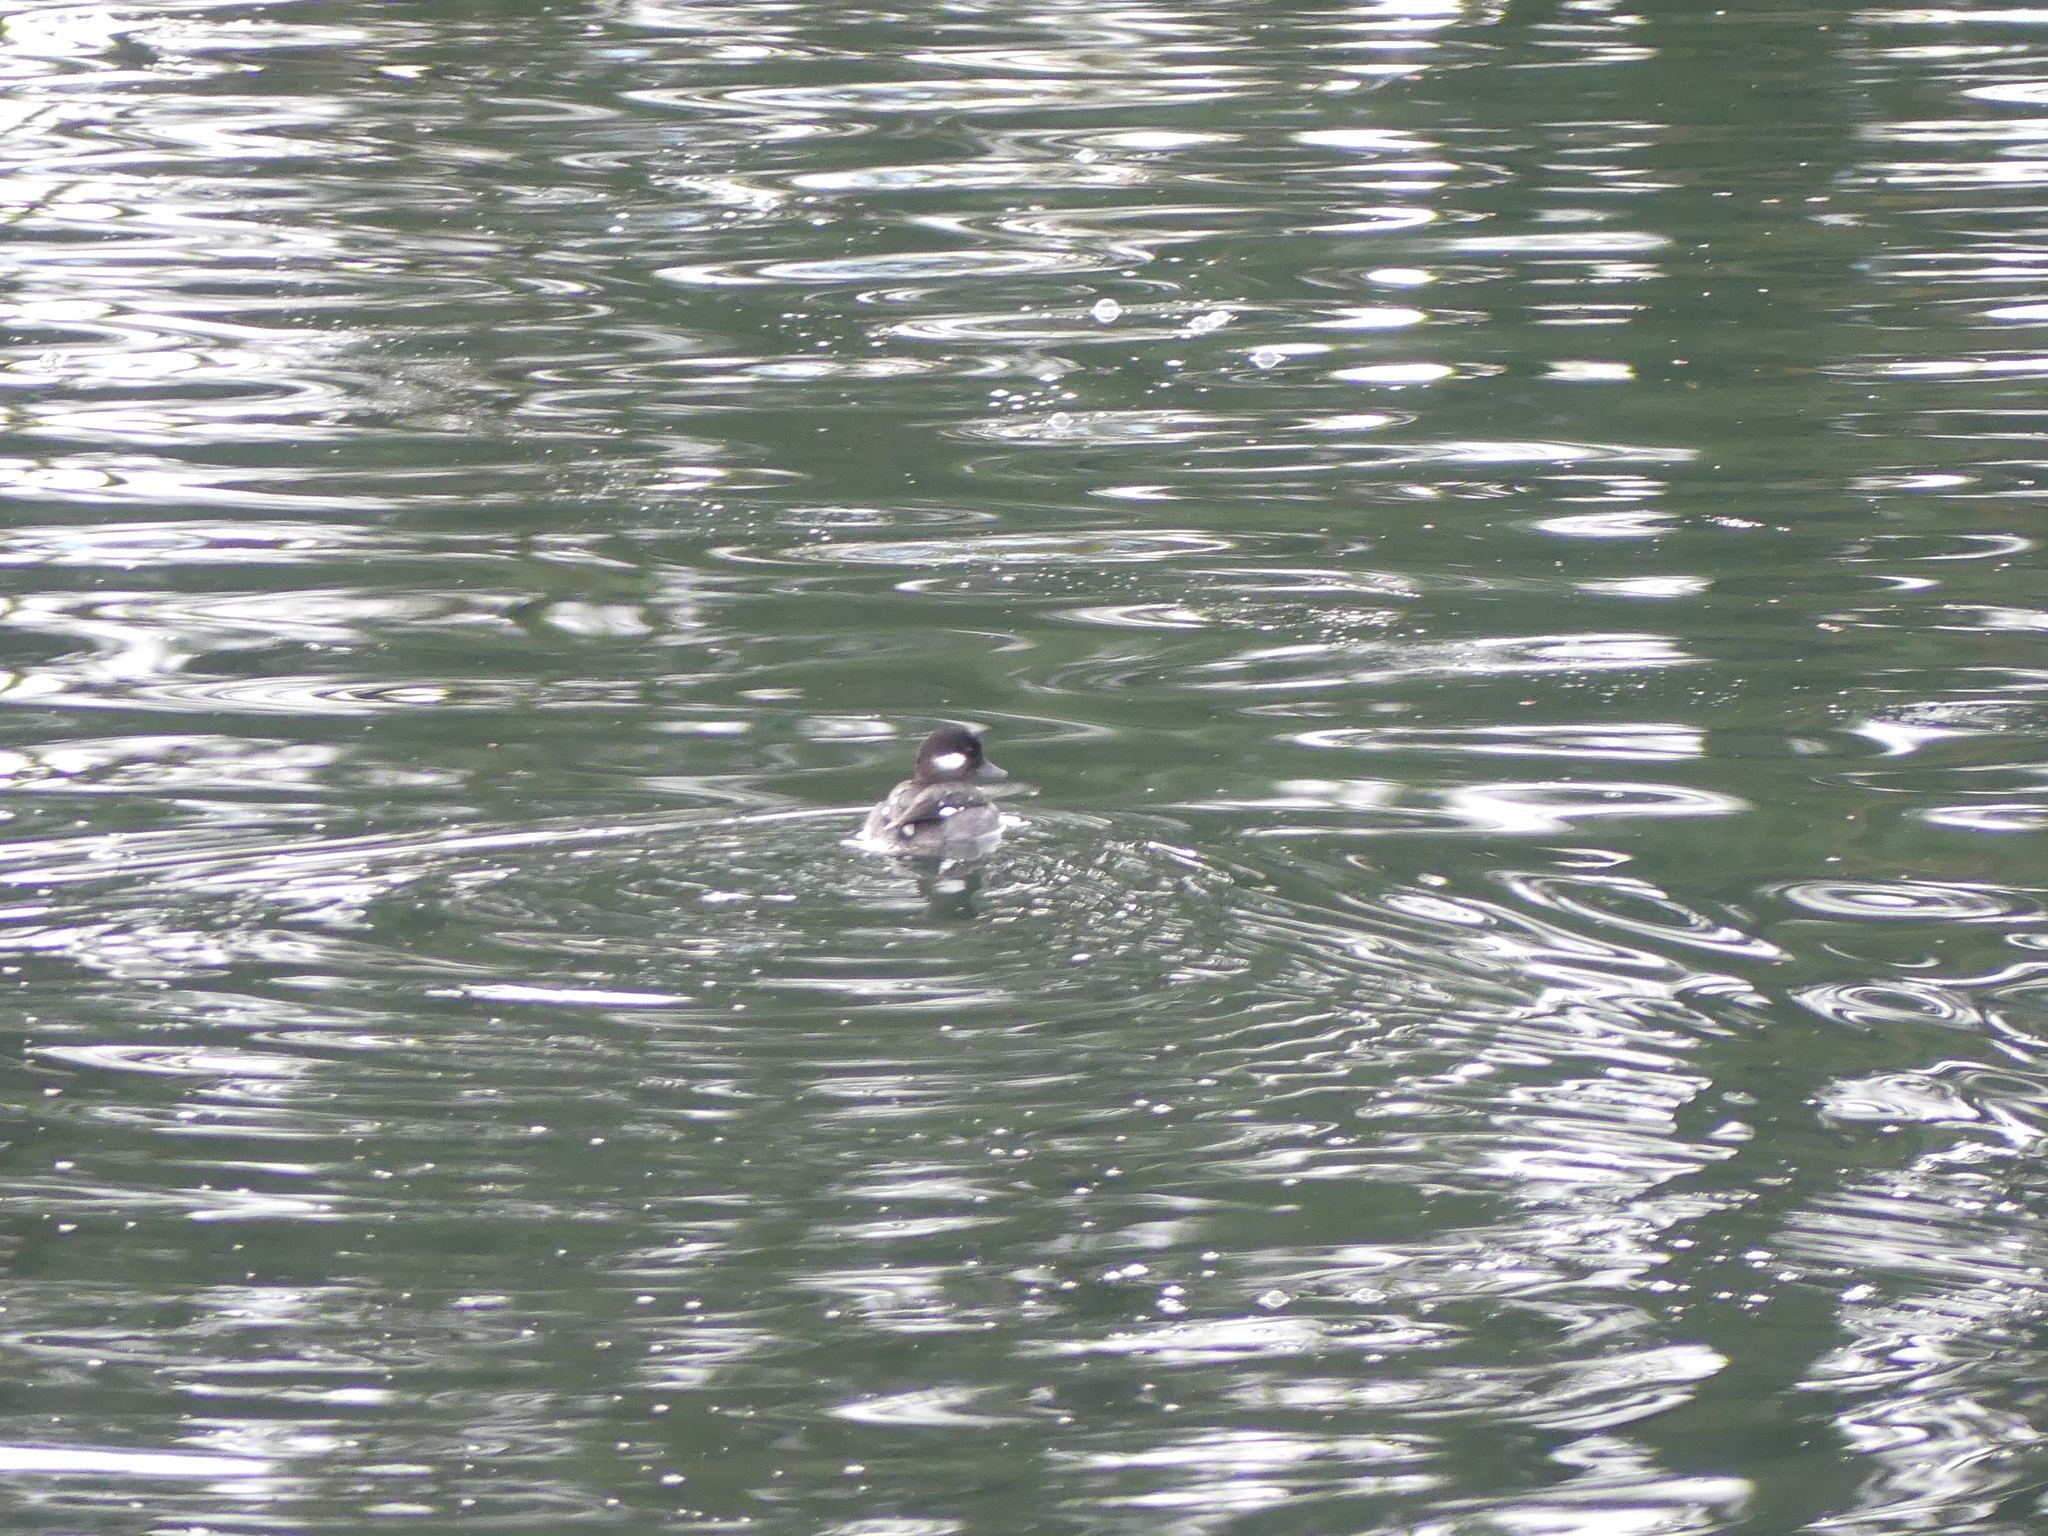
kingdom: Animalia
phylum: Chordata
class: Aves
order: Anseriformes
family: Anatidae
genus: Bucephala
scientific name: Bucephala albeola
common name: Bufflehead
